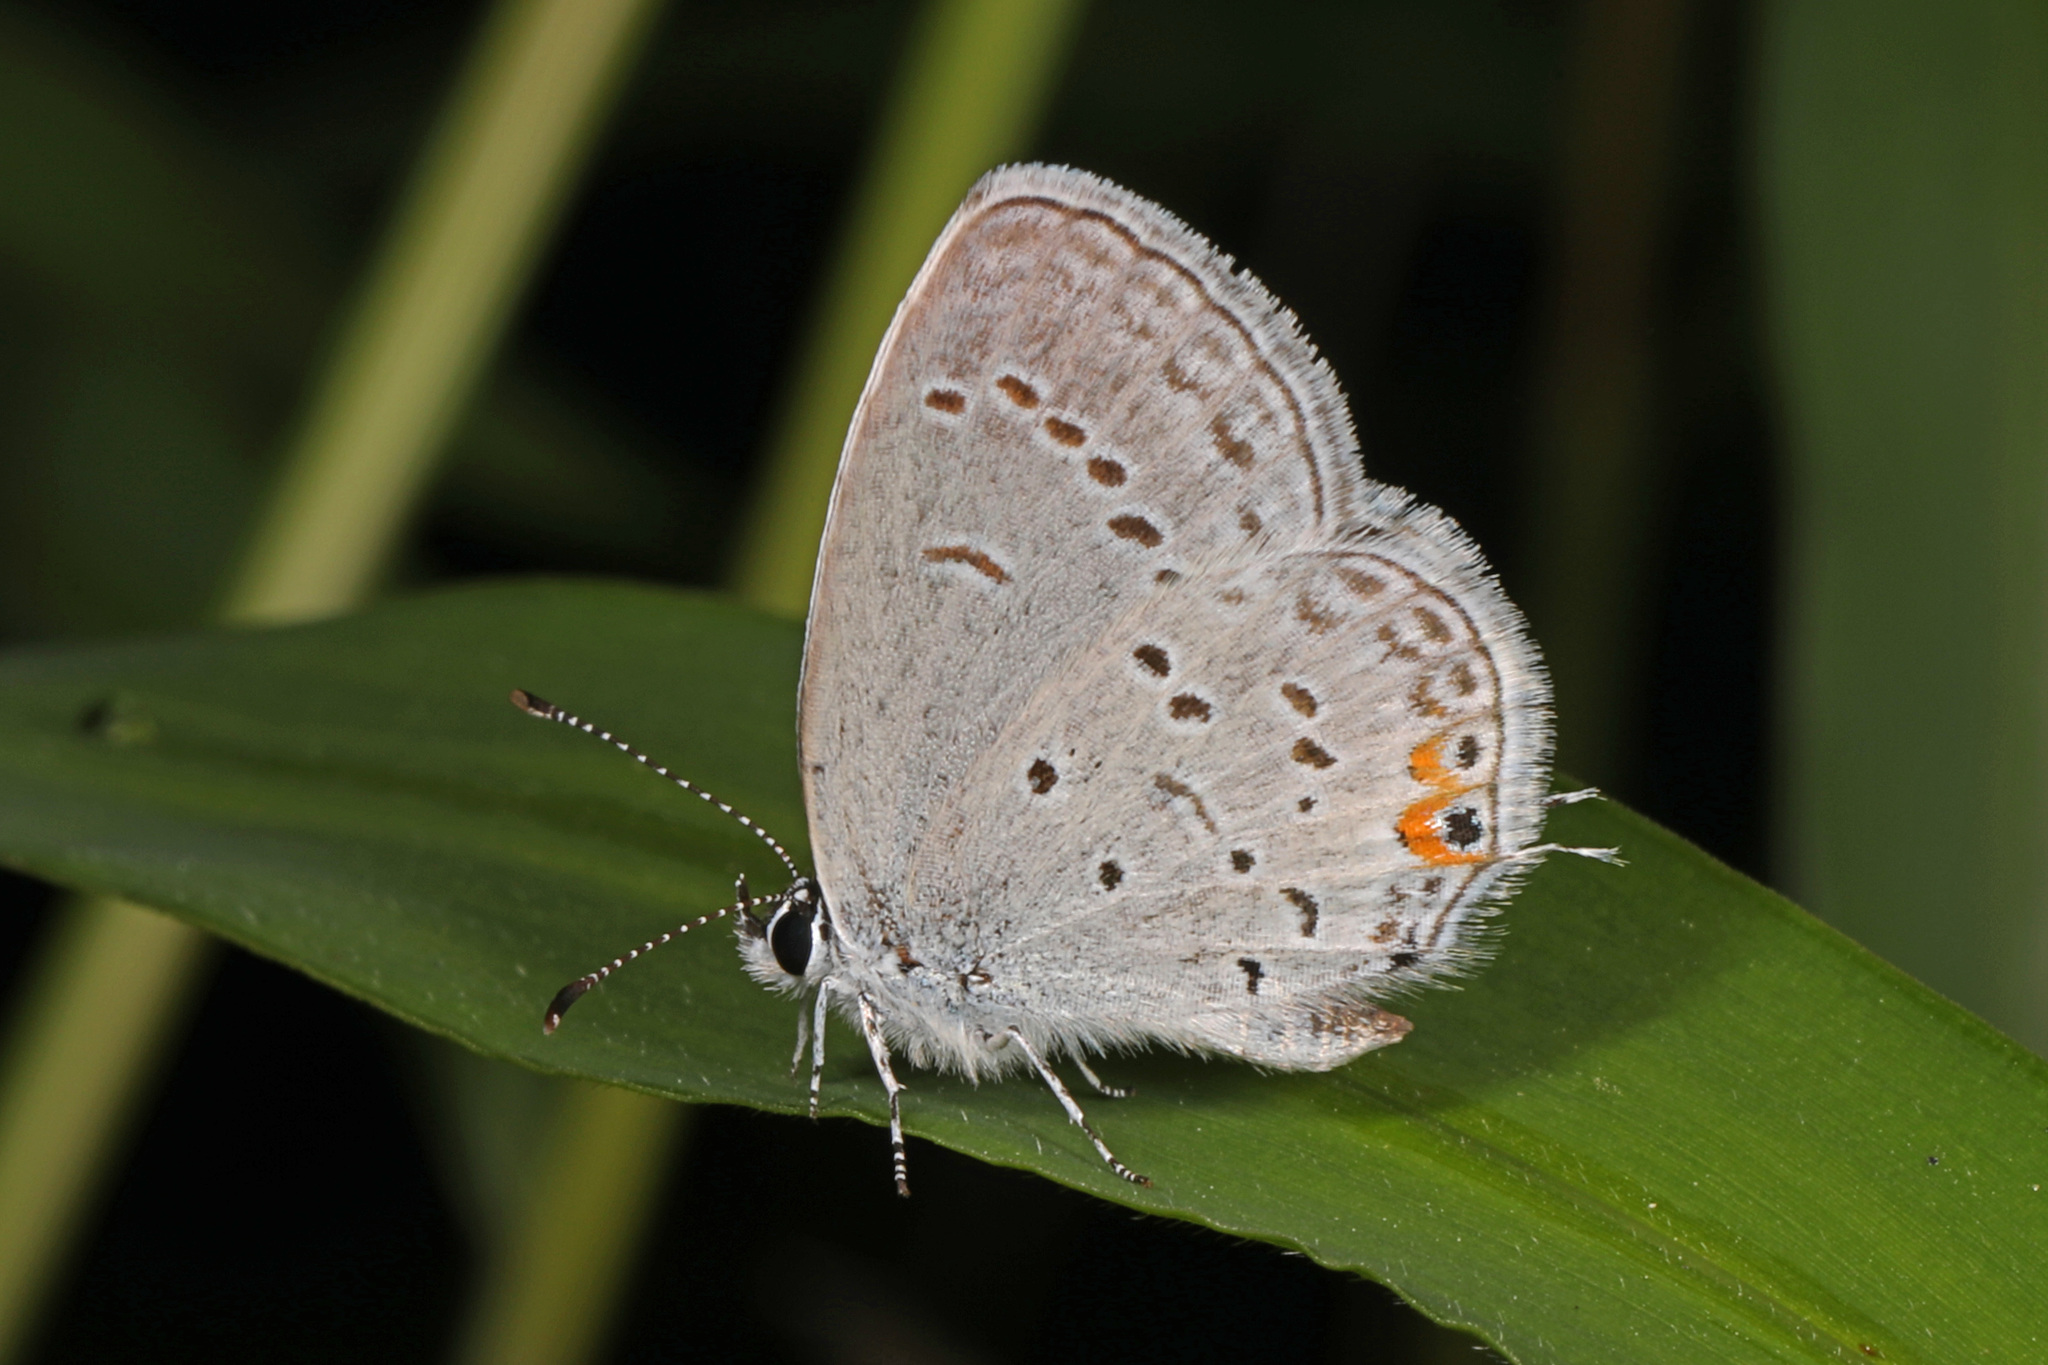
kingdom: Animalia
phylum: Arthropoda
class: Insecta
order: Lepidoptera
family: Lycaenidae
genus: Elkalyce
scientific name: Elkalyce comyntas
